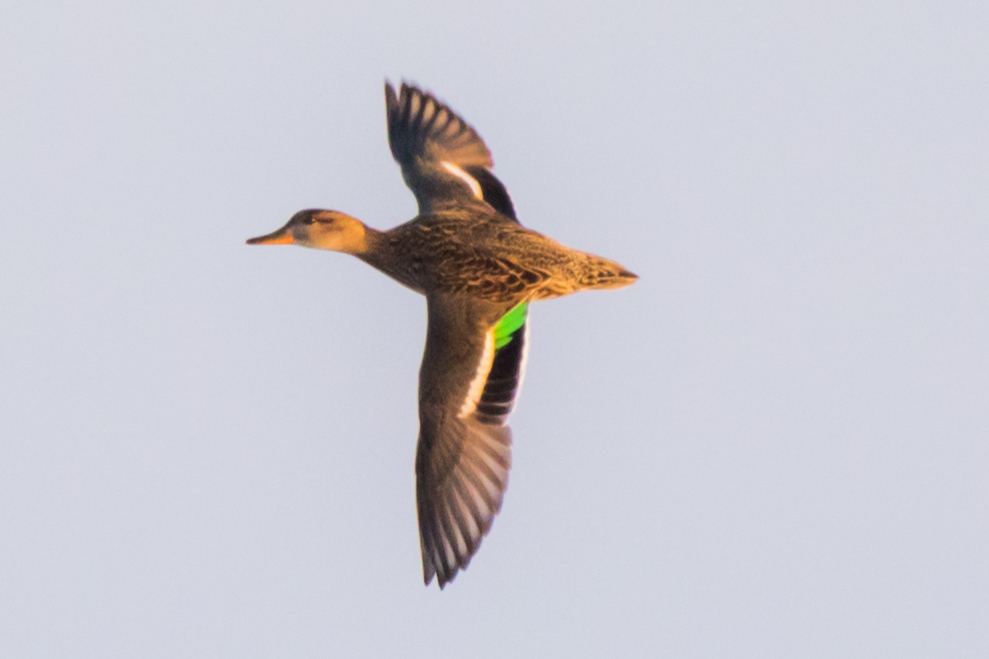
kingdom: Animalia
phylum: Chordata
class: Aves
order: Anseriformes
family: Anatidae
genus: Anas
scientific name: Anas crecca
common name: Eurasian teal
